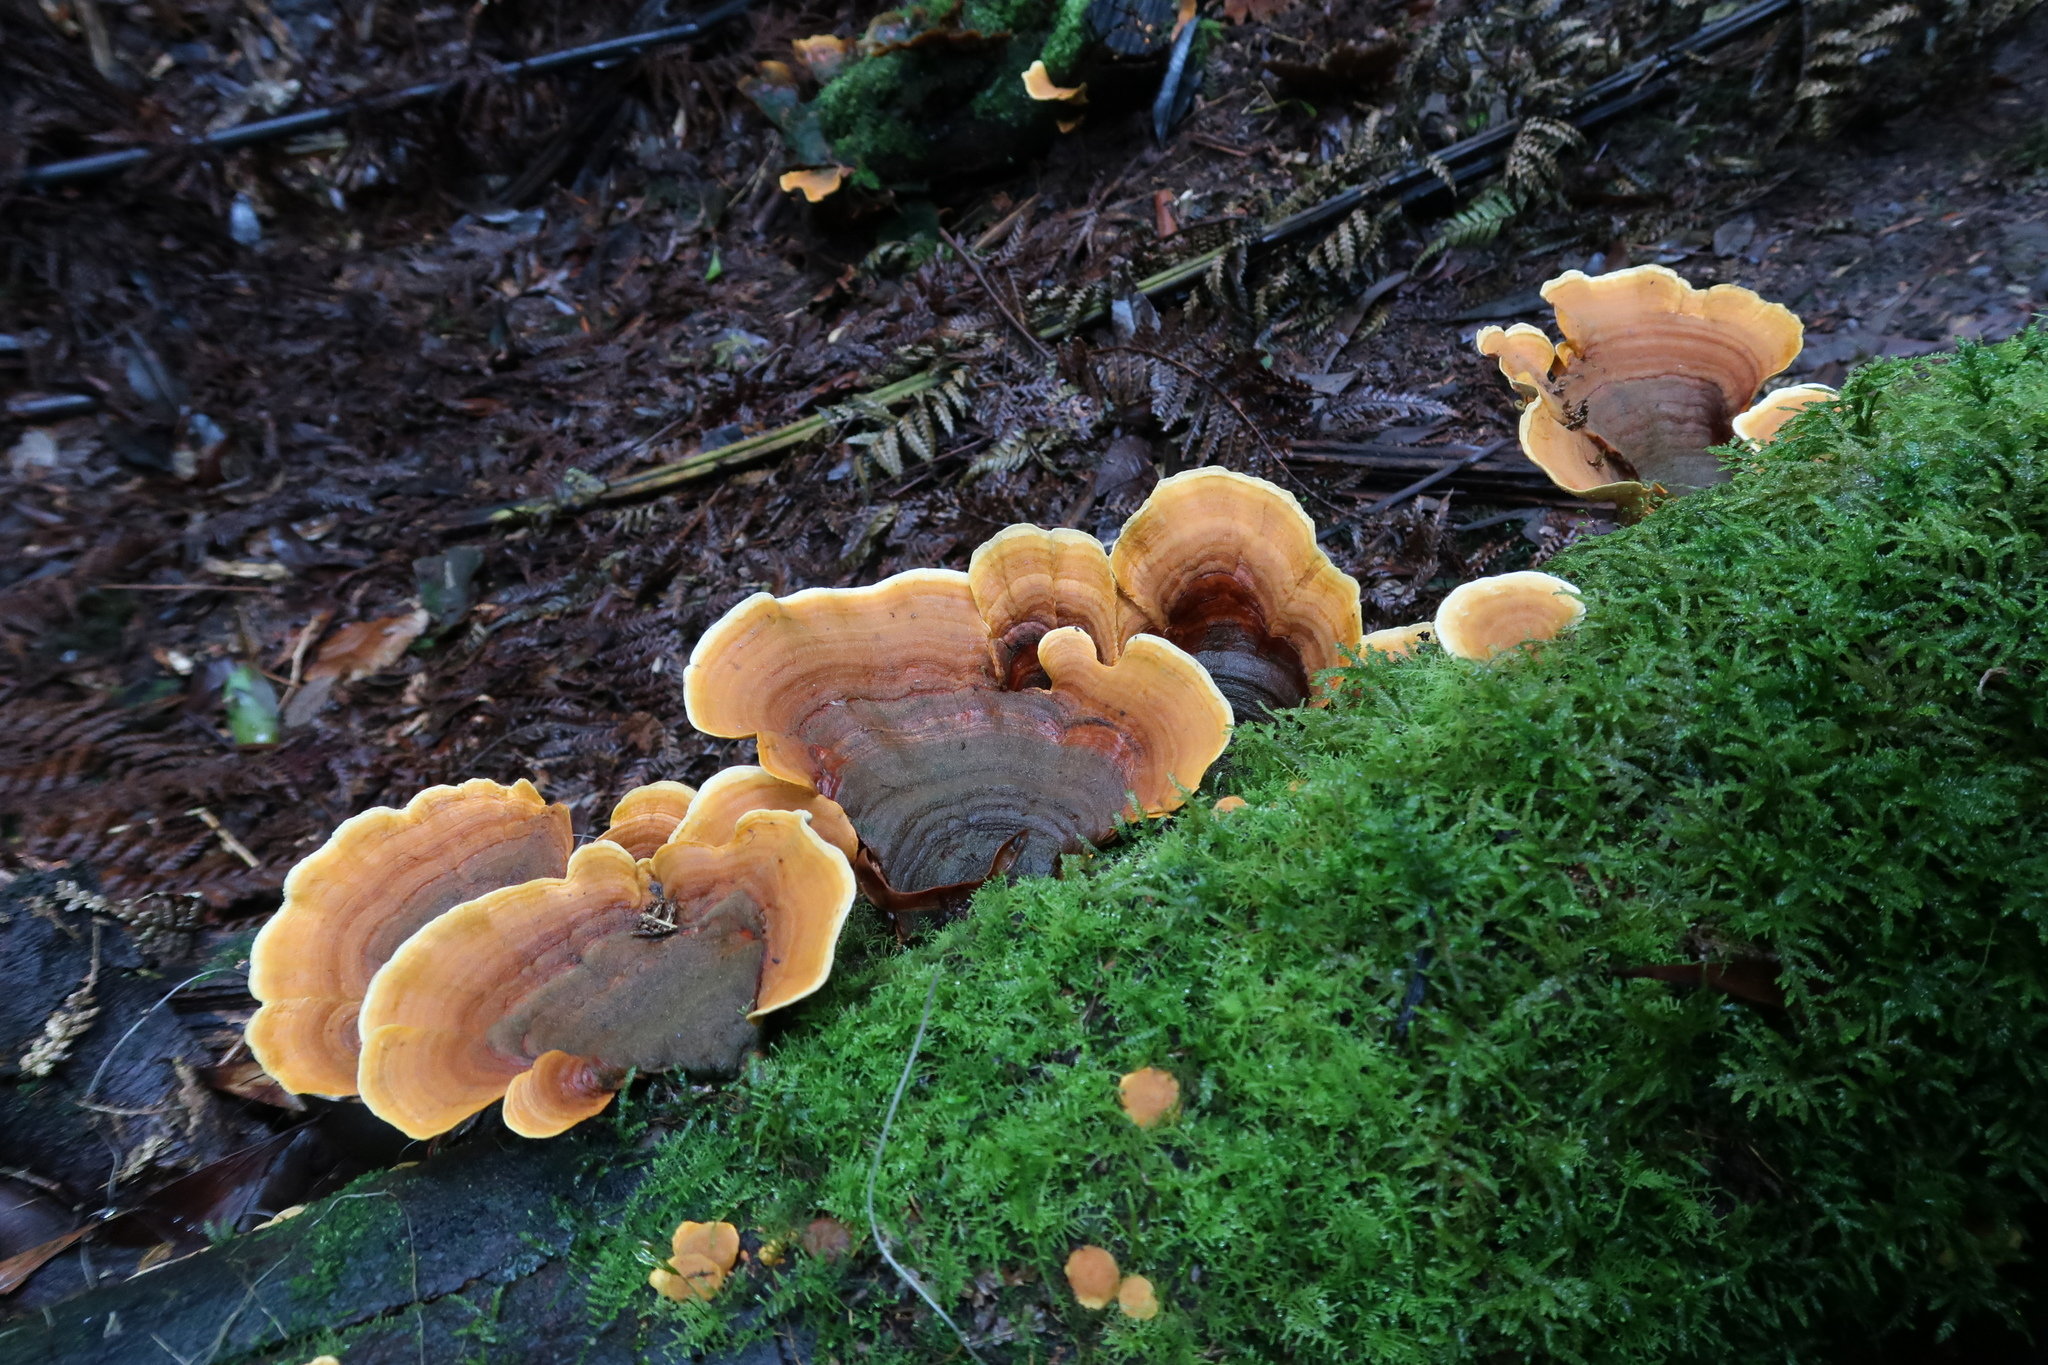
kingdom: Fungi
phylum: Basidiomycota
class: Agaricomycetes
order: Russulales
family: Stereaceae
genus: Stereum
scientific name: Stereum ostrea
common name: False turkeytail
